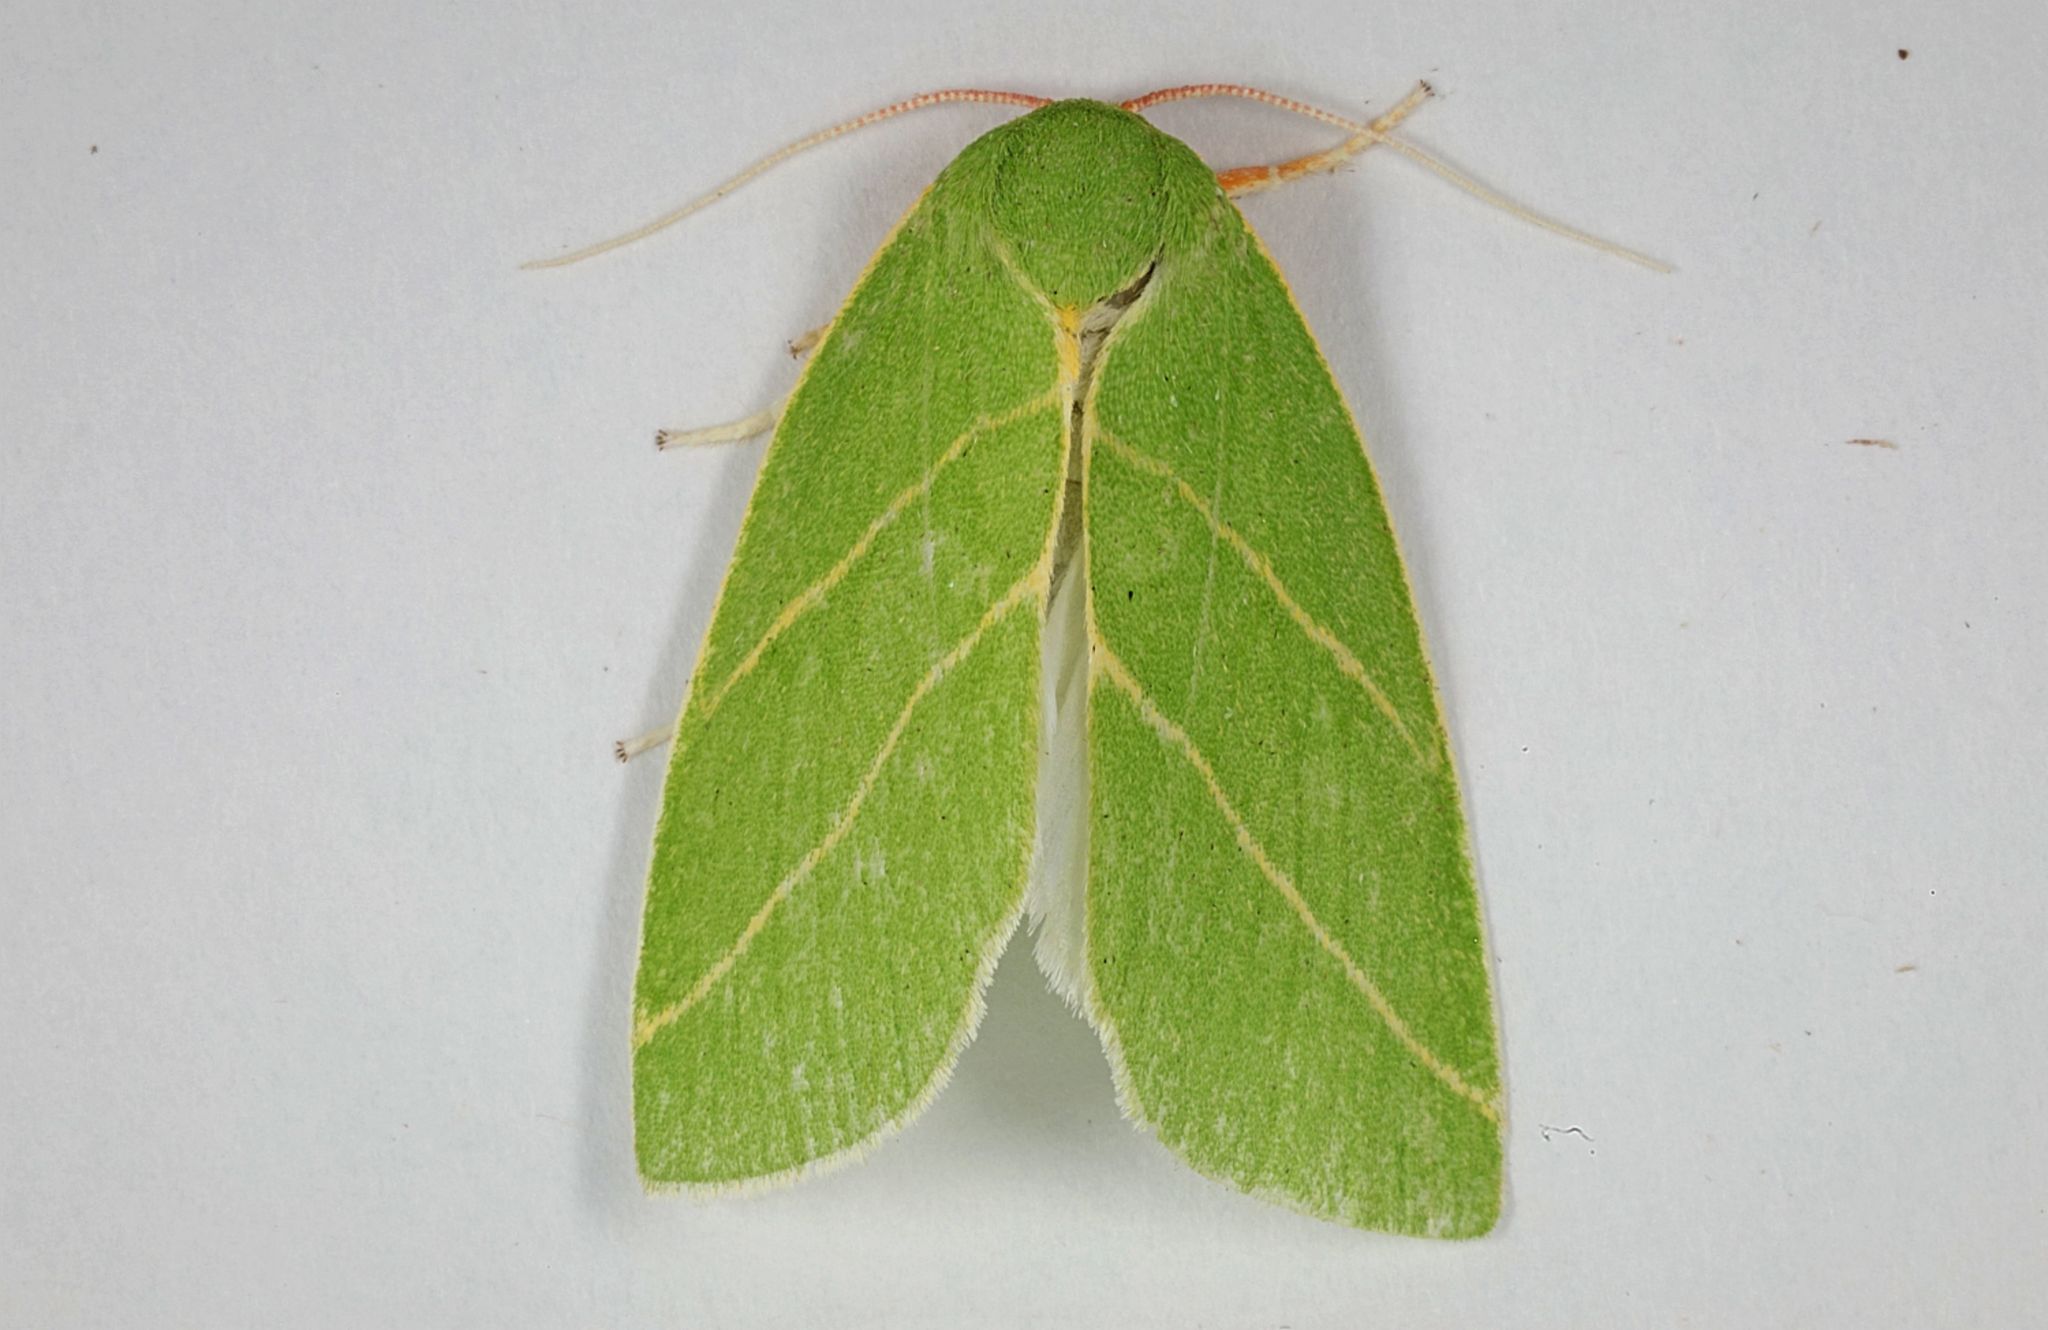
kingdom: Animalia
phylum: Arthropoda
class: Insecta
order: Lepidoptera
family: Nolidae
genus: Bena
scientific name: Bena bicolorana
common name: Scarce silver-lines
